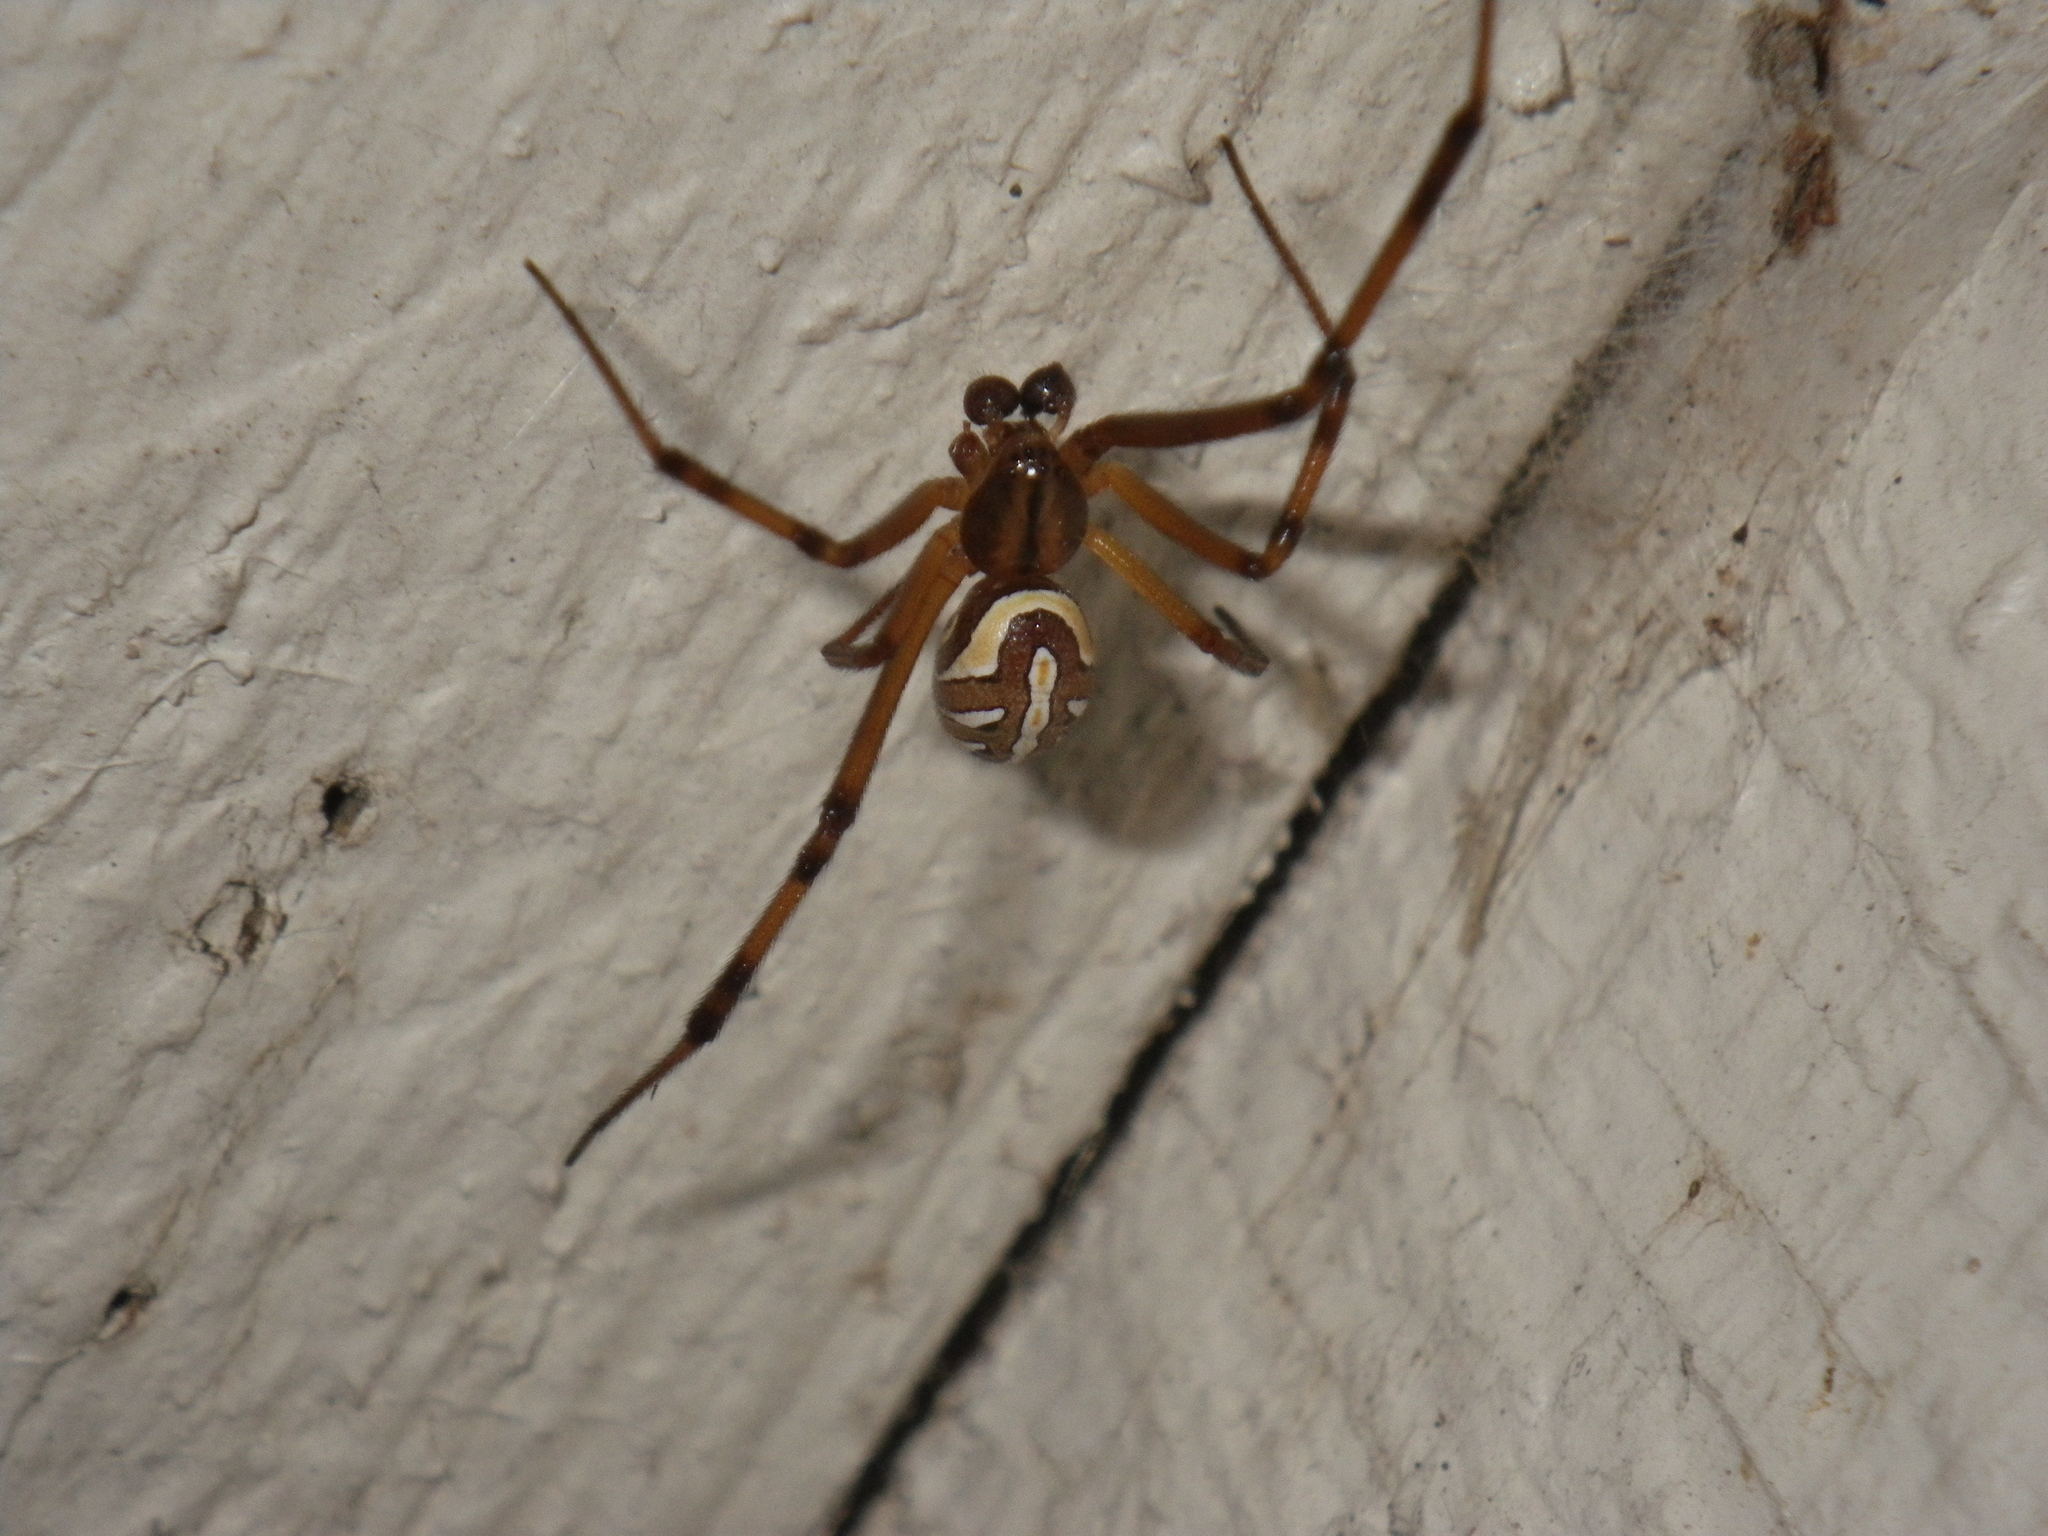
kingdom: Animalia
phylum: Arthropoda
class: Arachnida
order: Araneae
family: Theridiidae
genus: Latrodectus
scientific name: Latrodectus hesperus
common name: Western black widow
